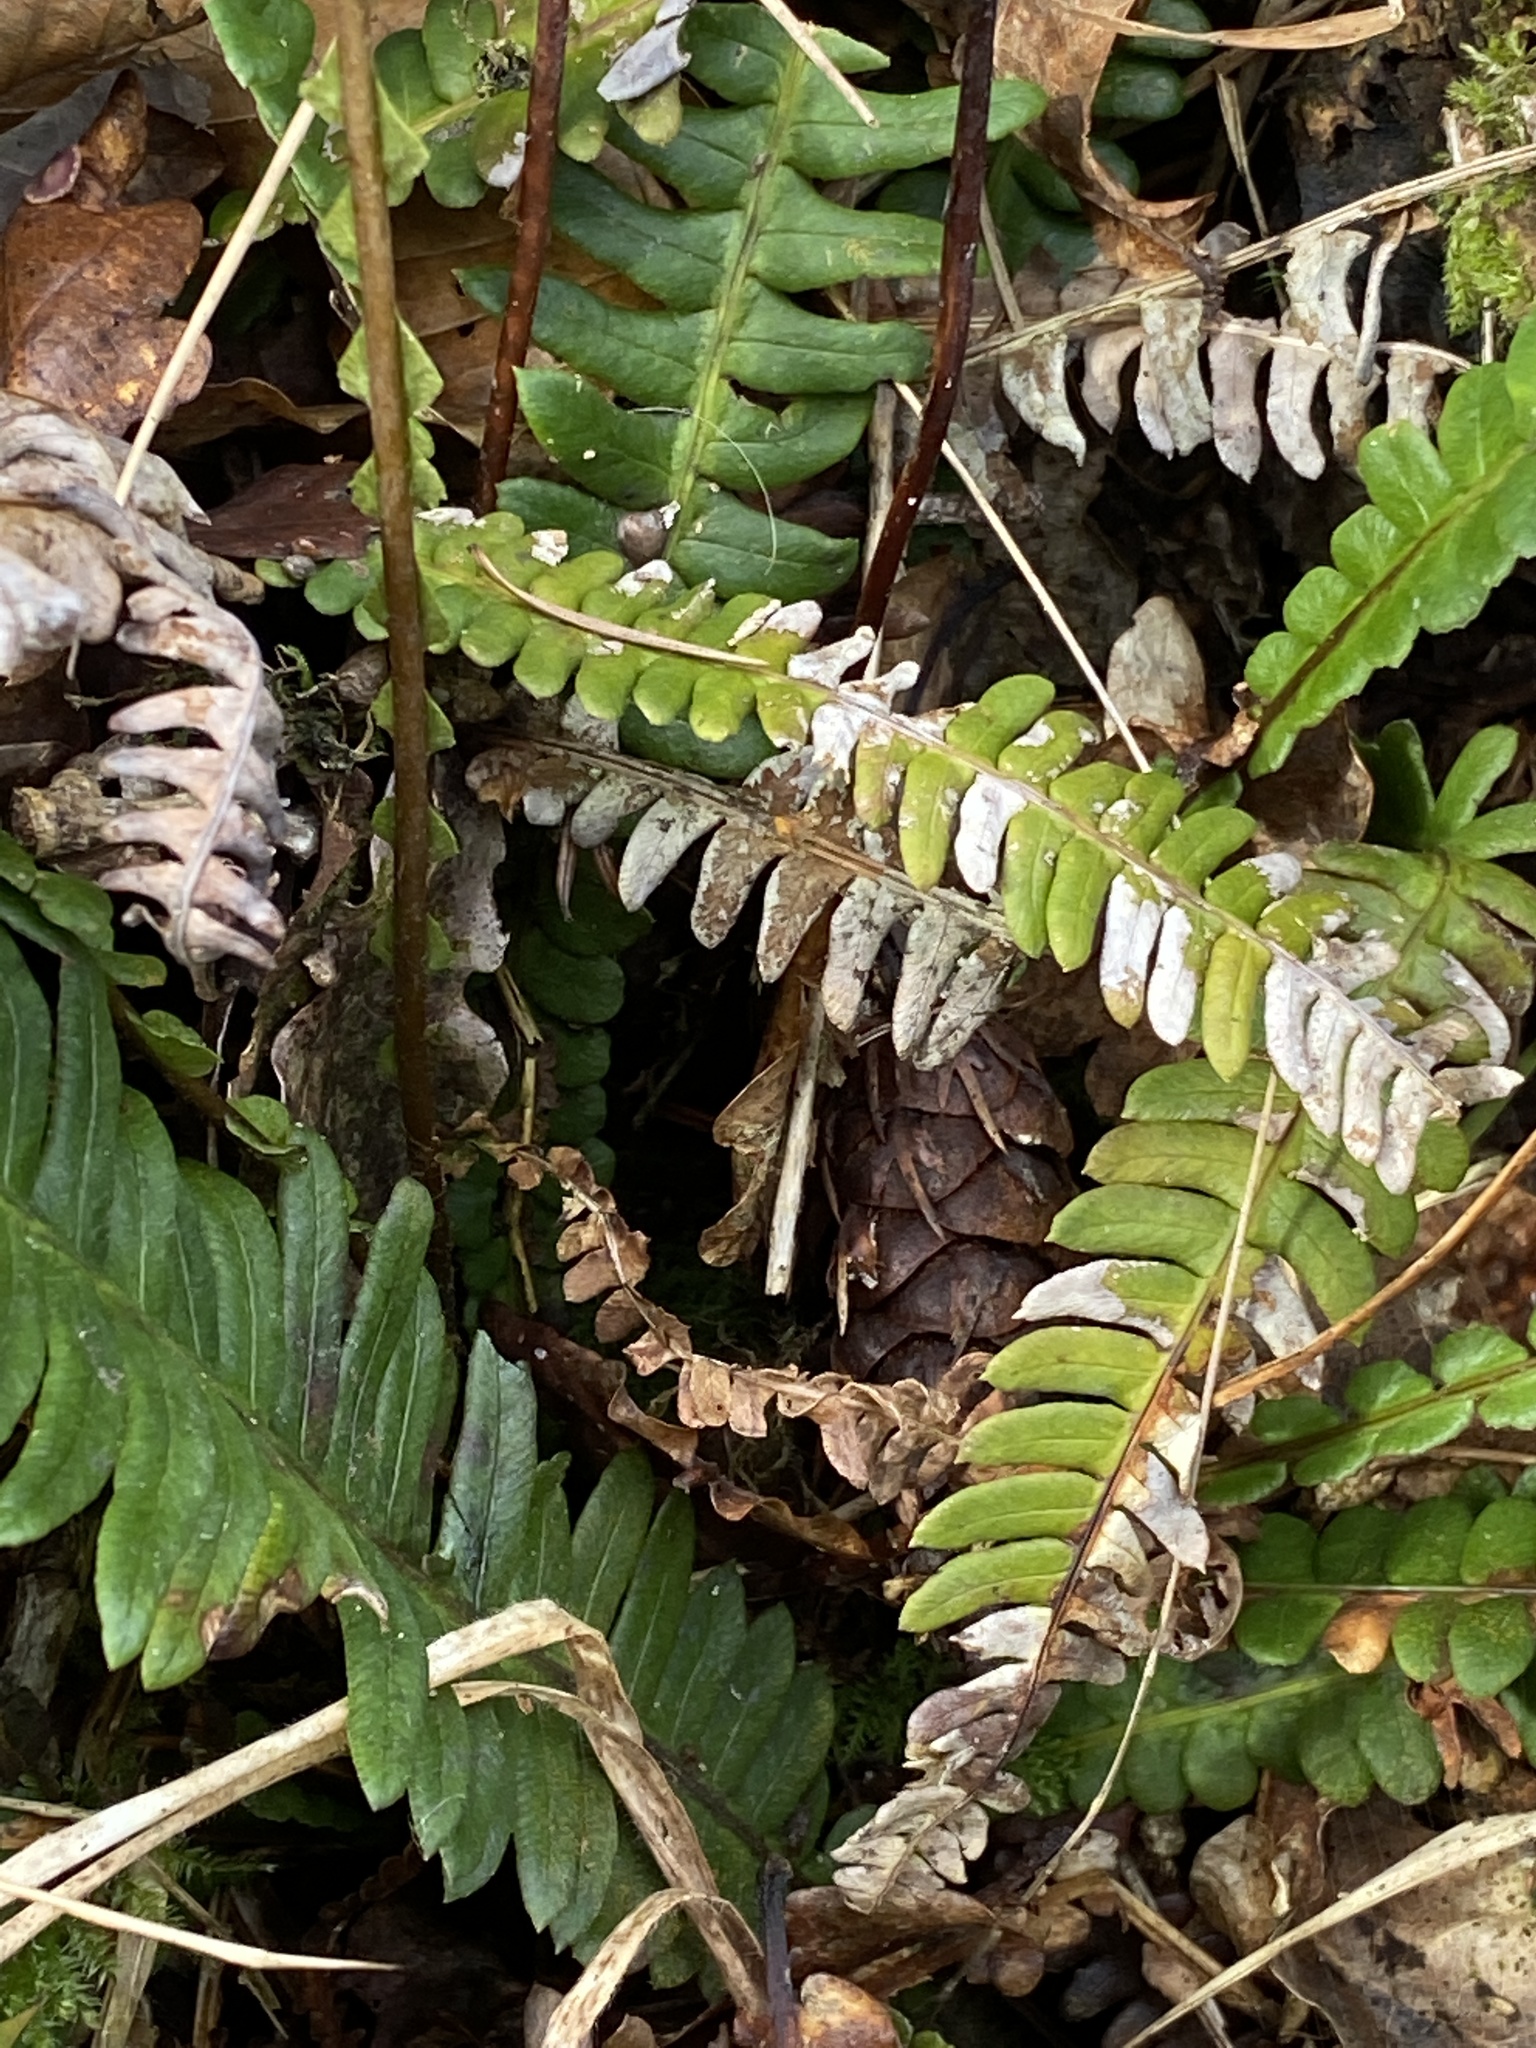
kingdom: Plantae
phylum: Tracheophyta
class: Polypodiopsida
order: Polypodiales
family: Blechnaceae
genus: Struthiopteris
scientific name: Struthiopteris spicant
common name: Deer fern
